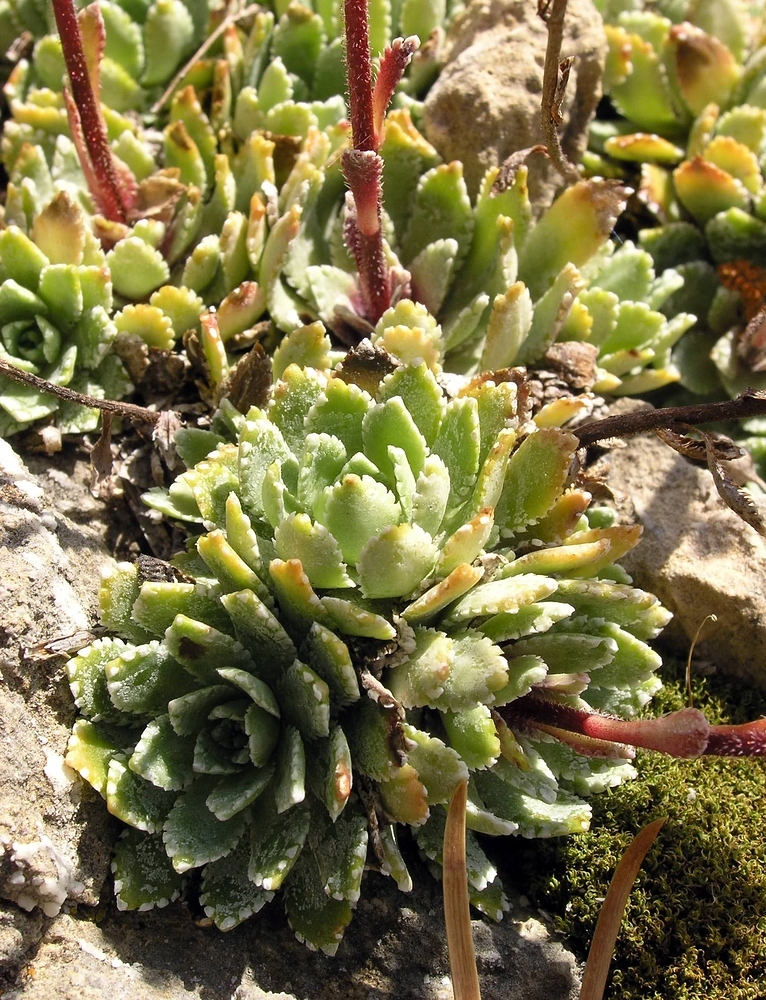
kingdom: Plantae
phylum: Tracheophyta
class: Magnoliopsida
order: Saxifragales
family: Saxifragaceae
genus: Saxifraga
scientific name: Saxifraga paniculata
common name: Livelong saxifrage
